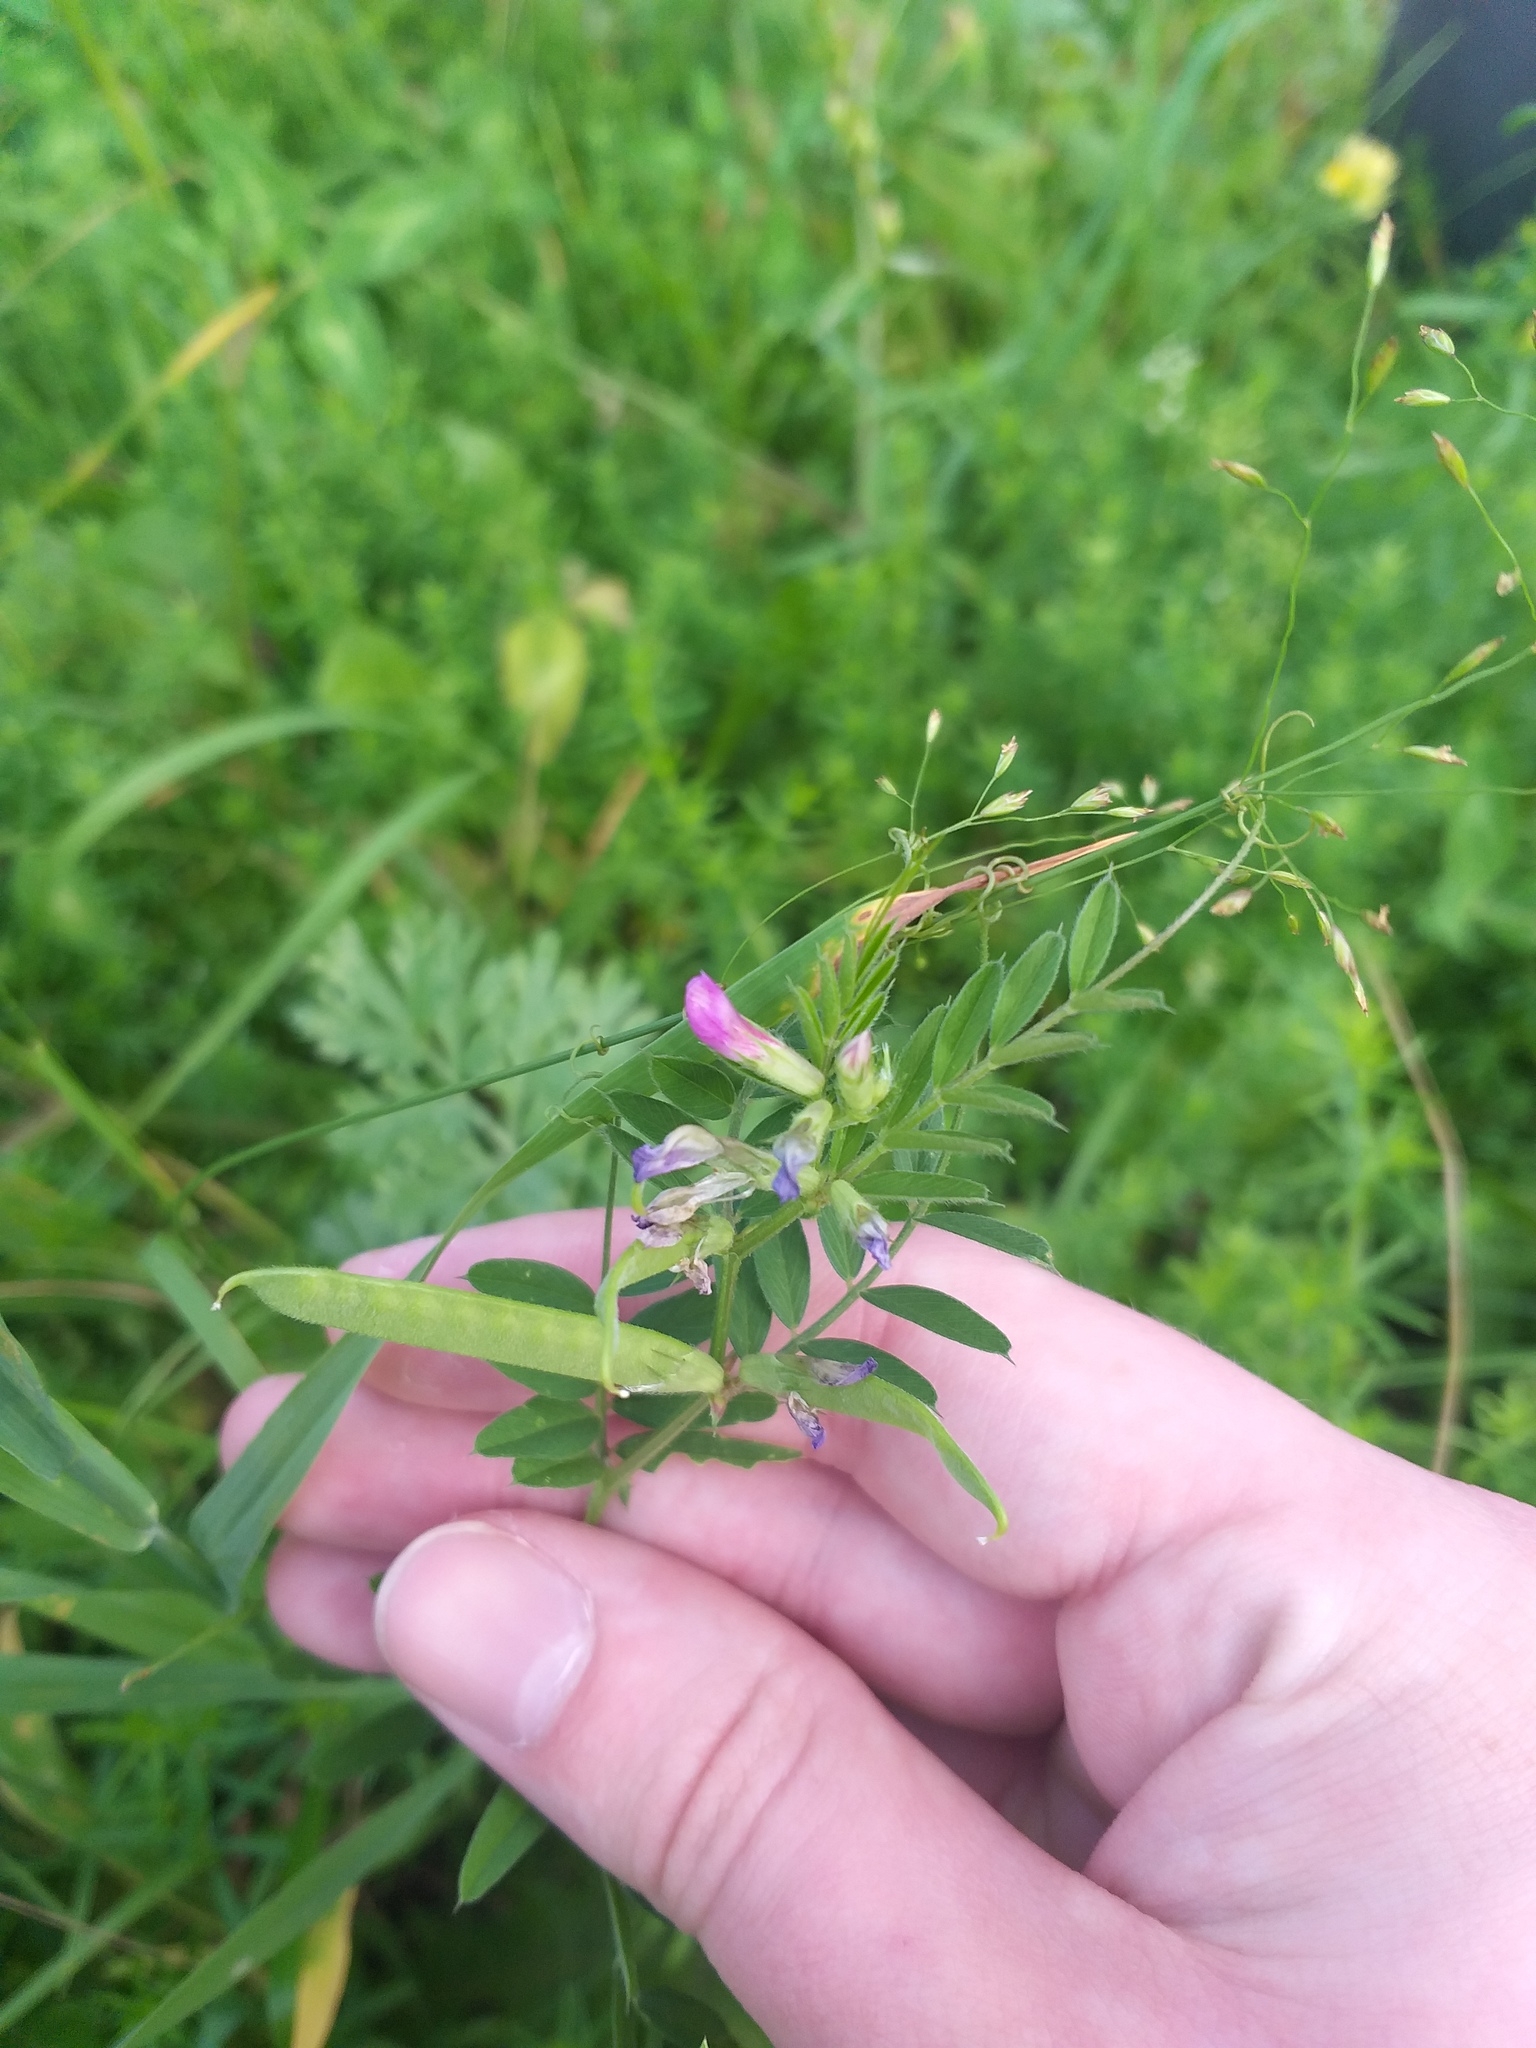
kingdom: Plantae
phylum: Tracheophyta
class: Magnoliopsida
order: Fabales
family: Fabaceae
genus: Vicia
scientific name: Vicia sativa
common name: Garden vetch
